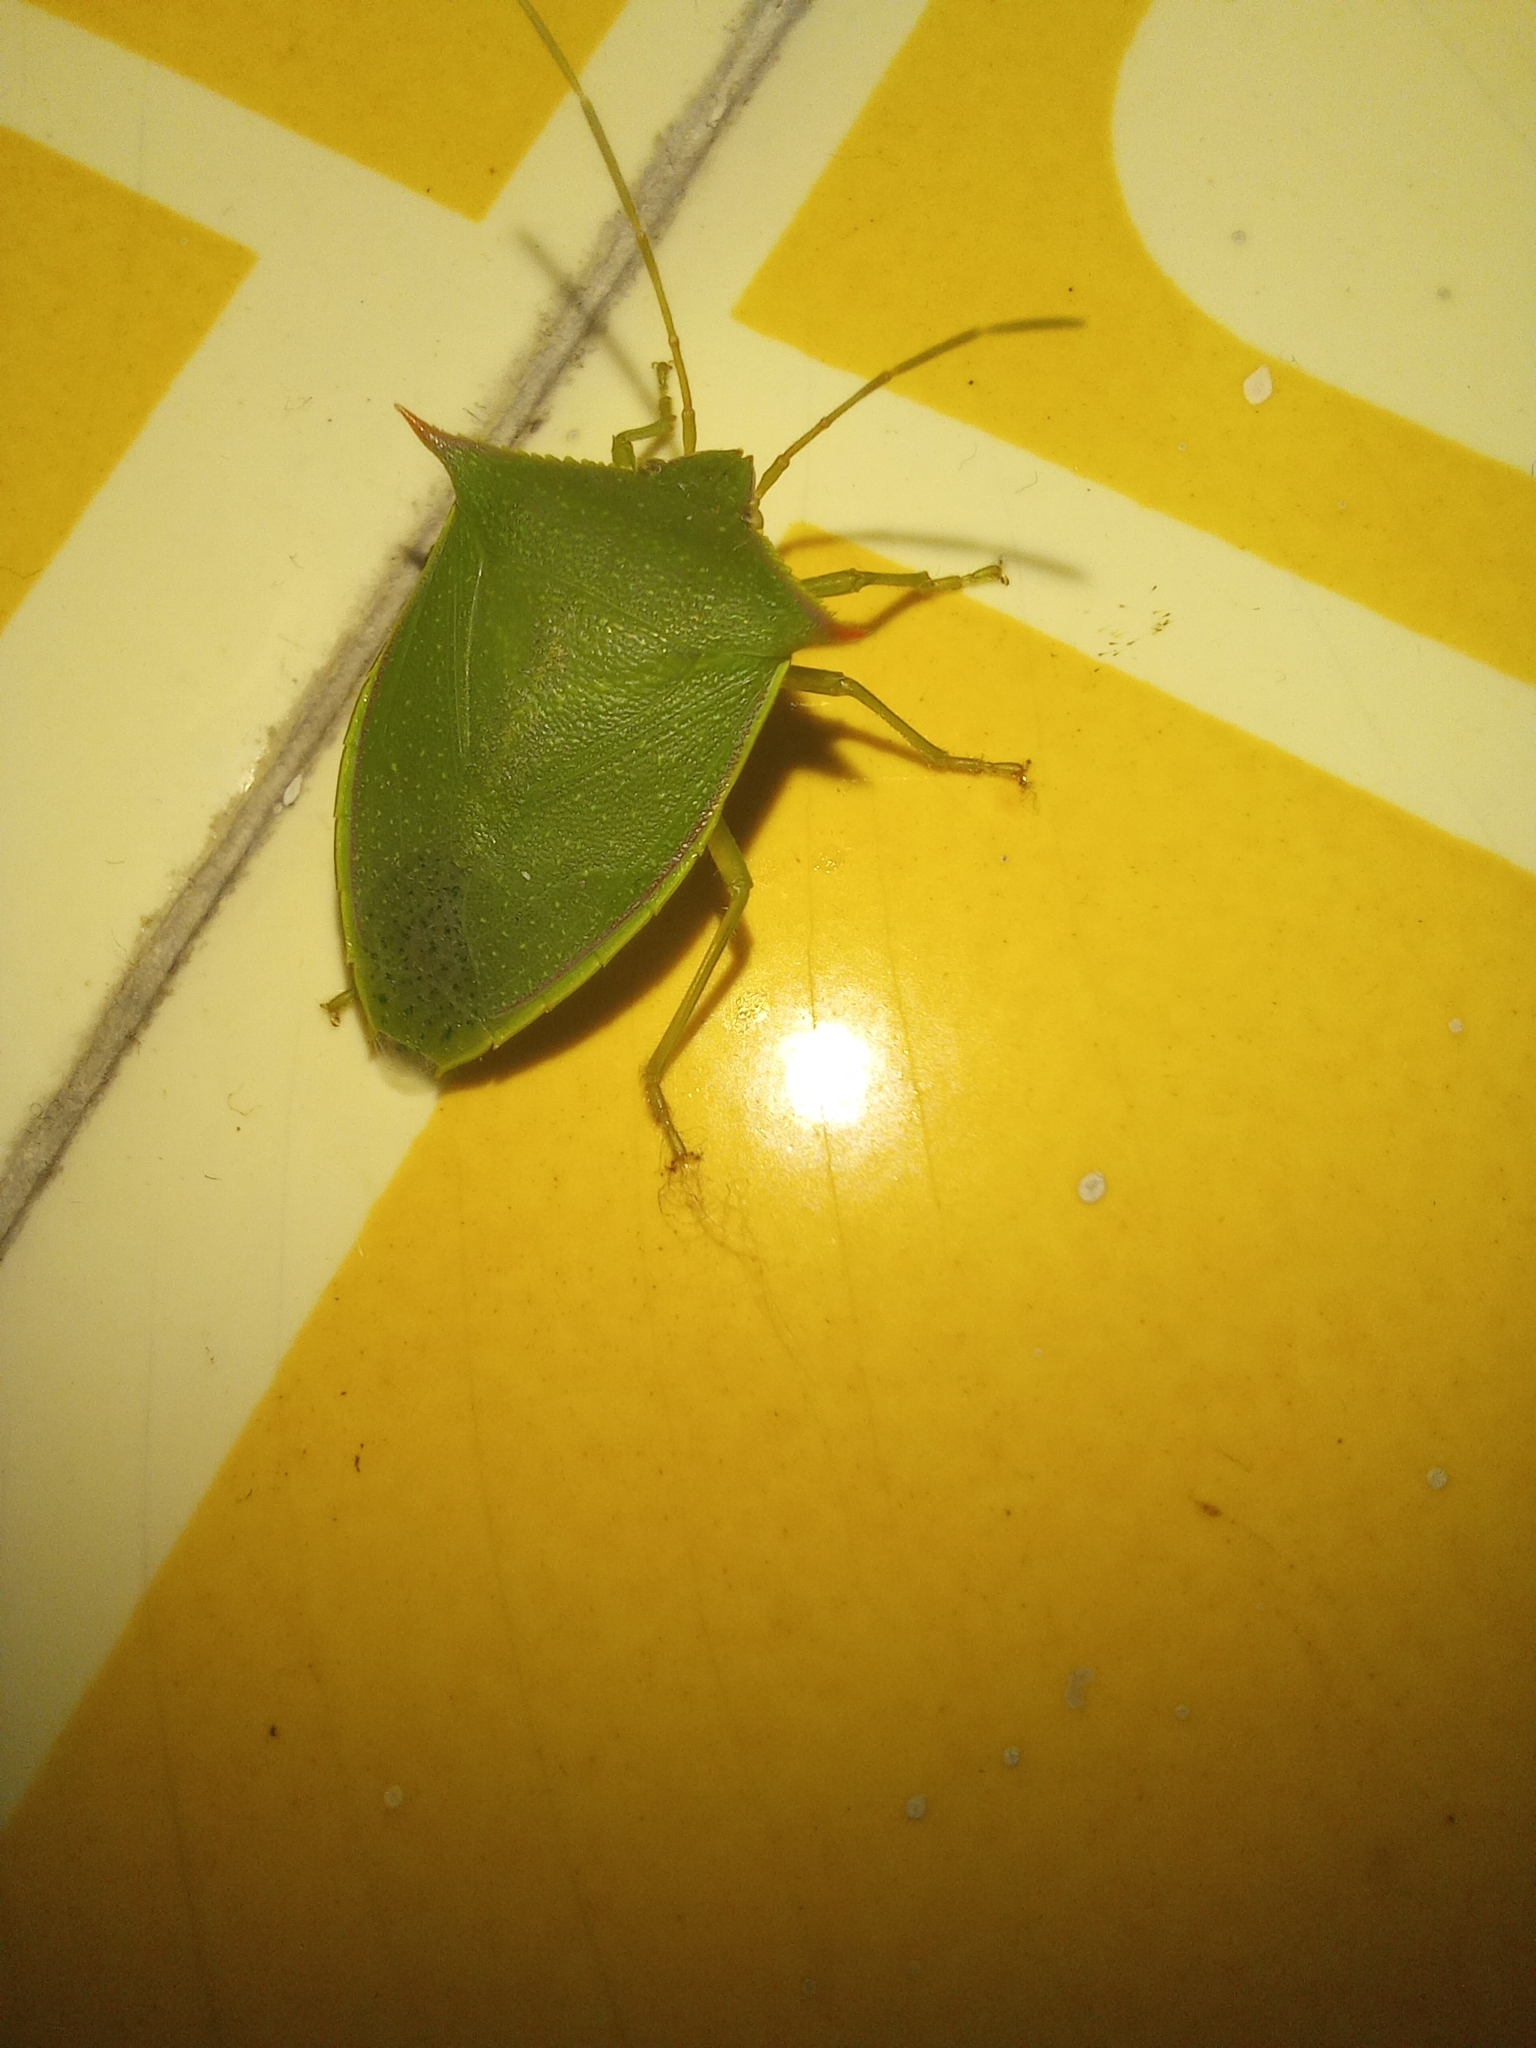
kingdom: Animalia
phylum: Arthropoda
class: Insecta
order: Hemiptera
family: Pentatomidae
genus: Loxa
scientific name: Loxa deducta
